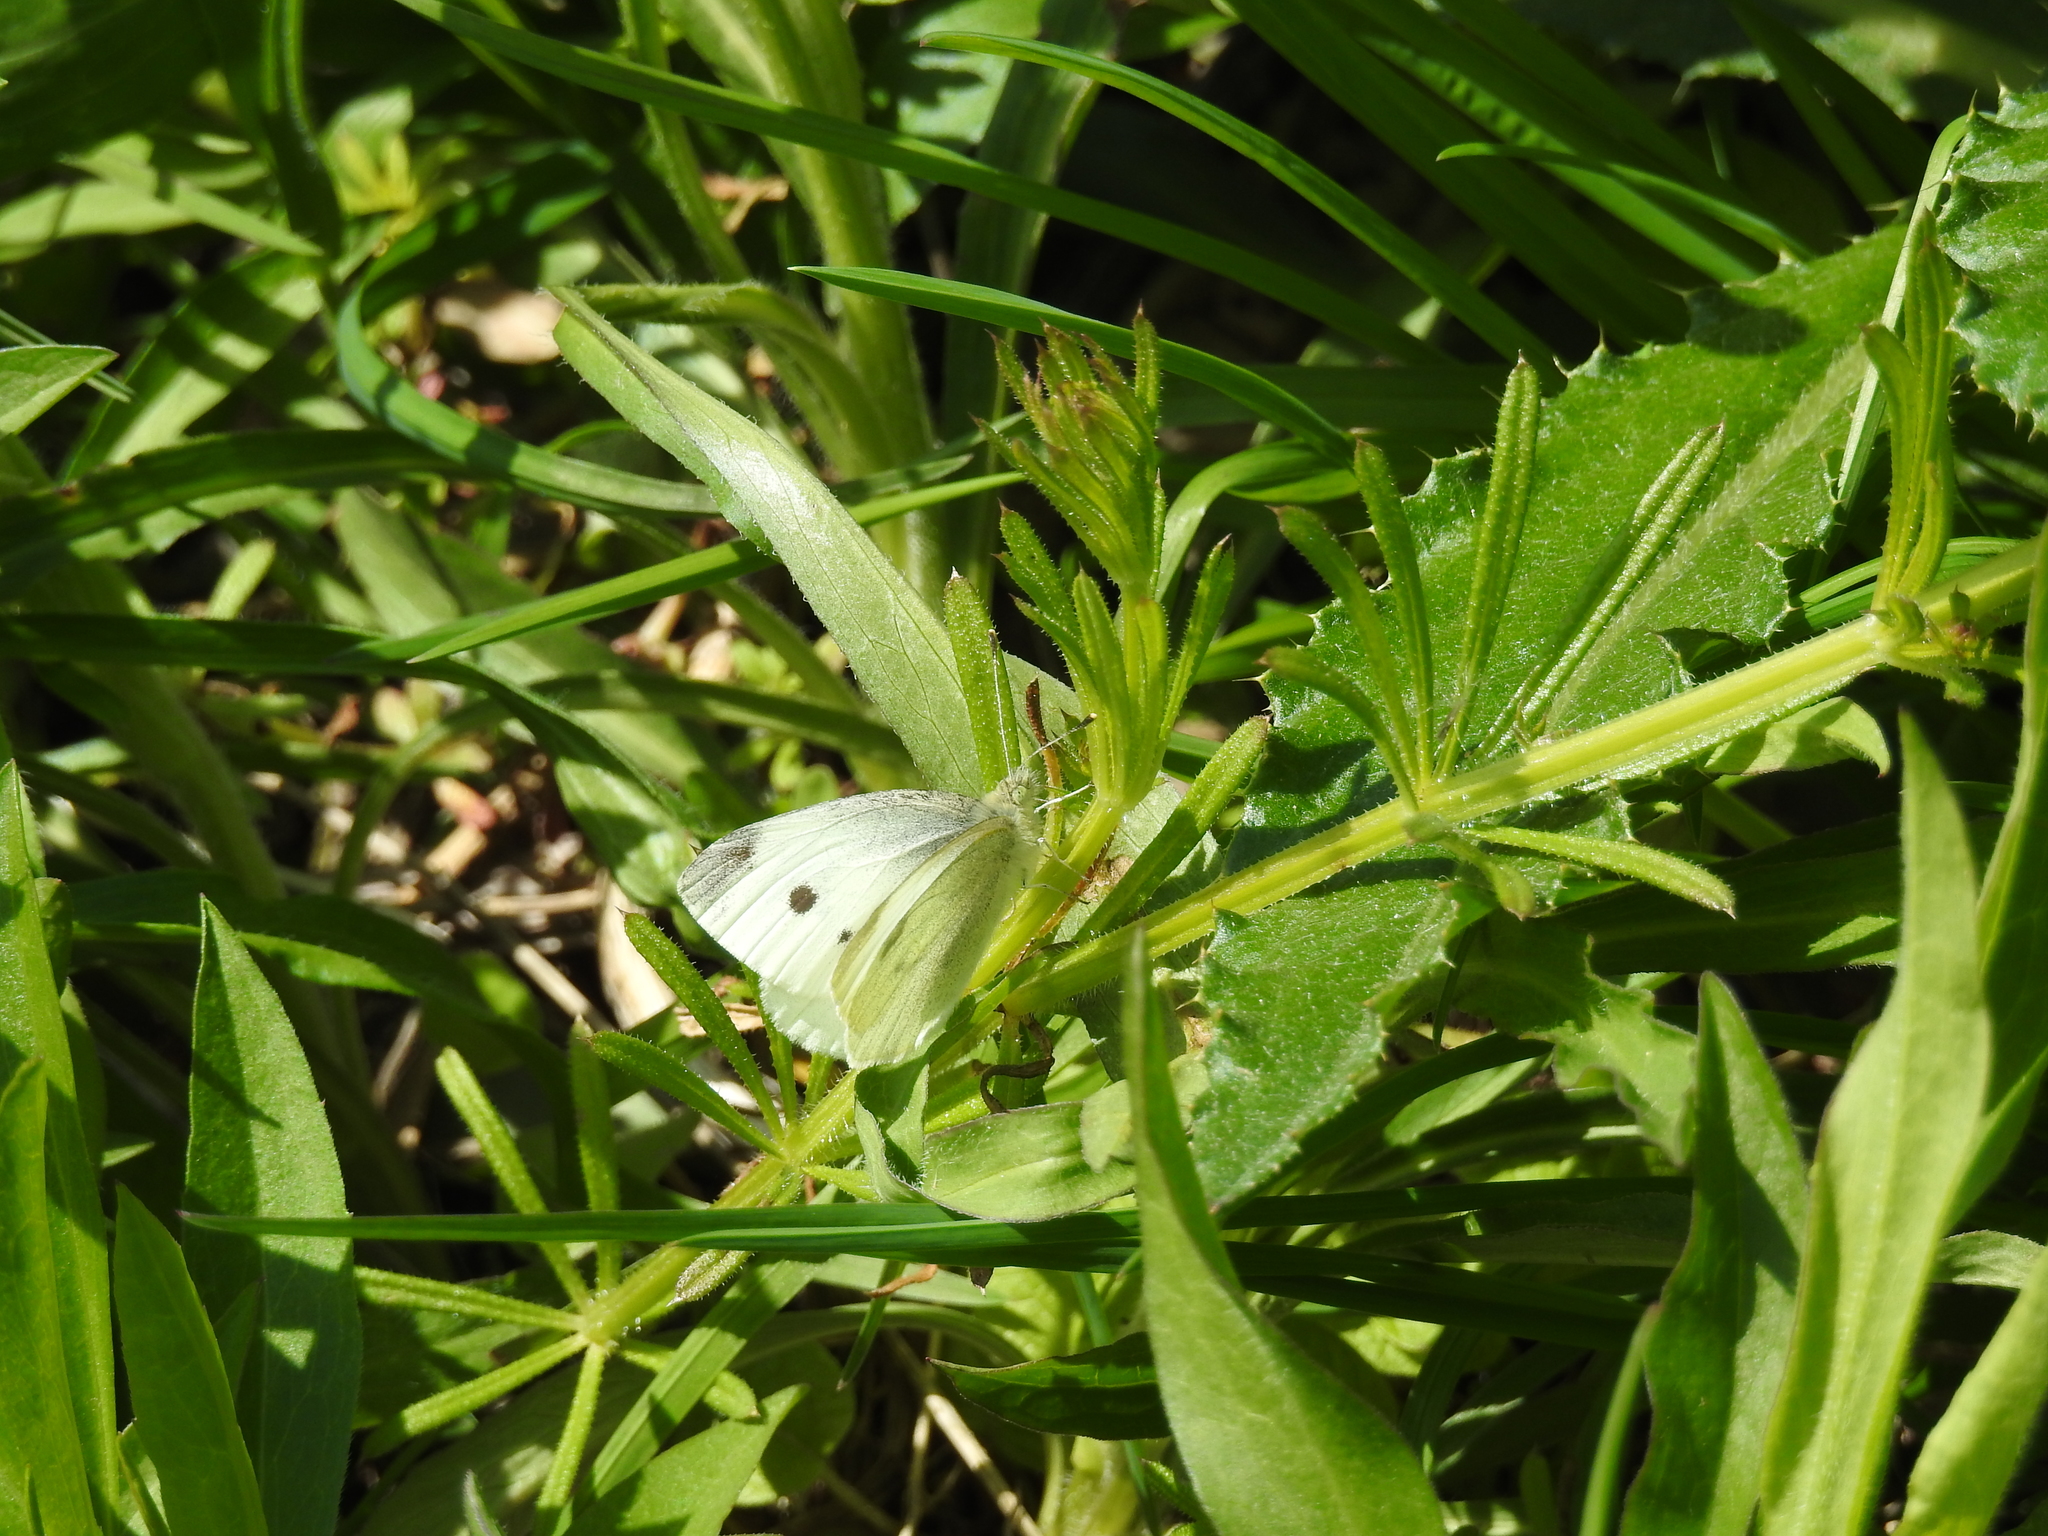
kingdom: Animalia
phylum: Arthropoda
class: Insecta
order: Lepidoptera
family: Pieridae
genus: Pieris
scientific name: Pieris rapae
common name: Small white
